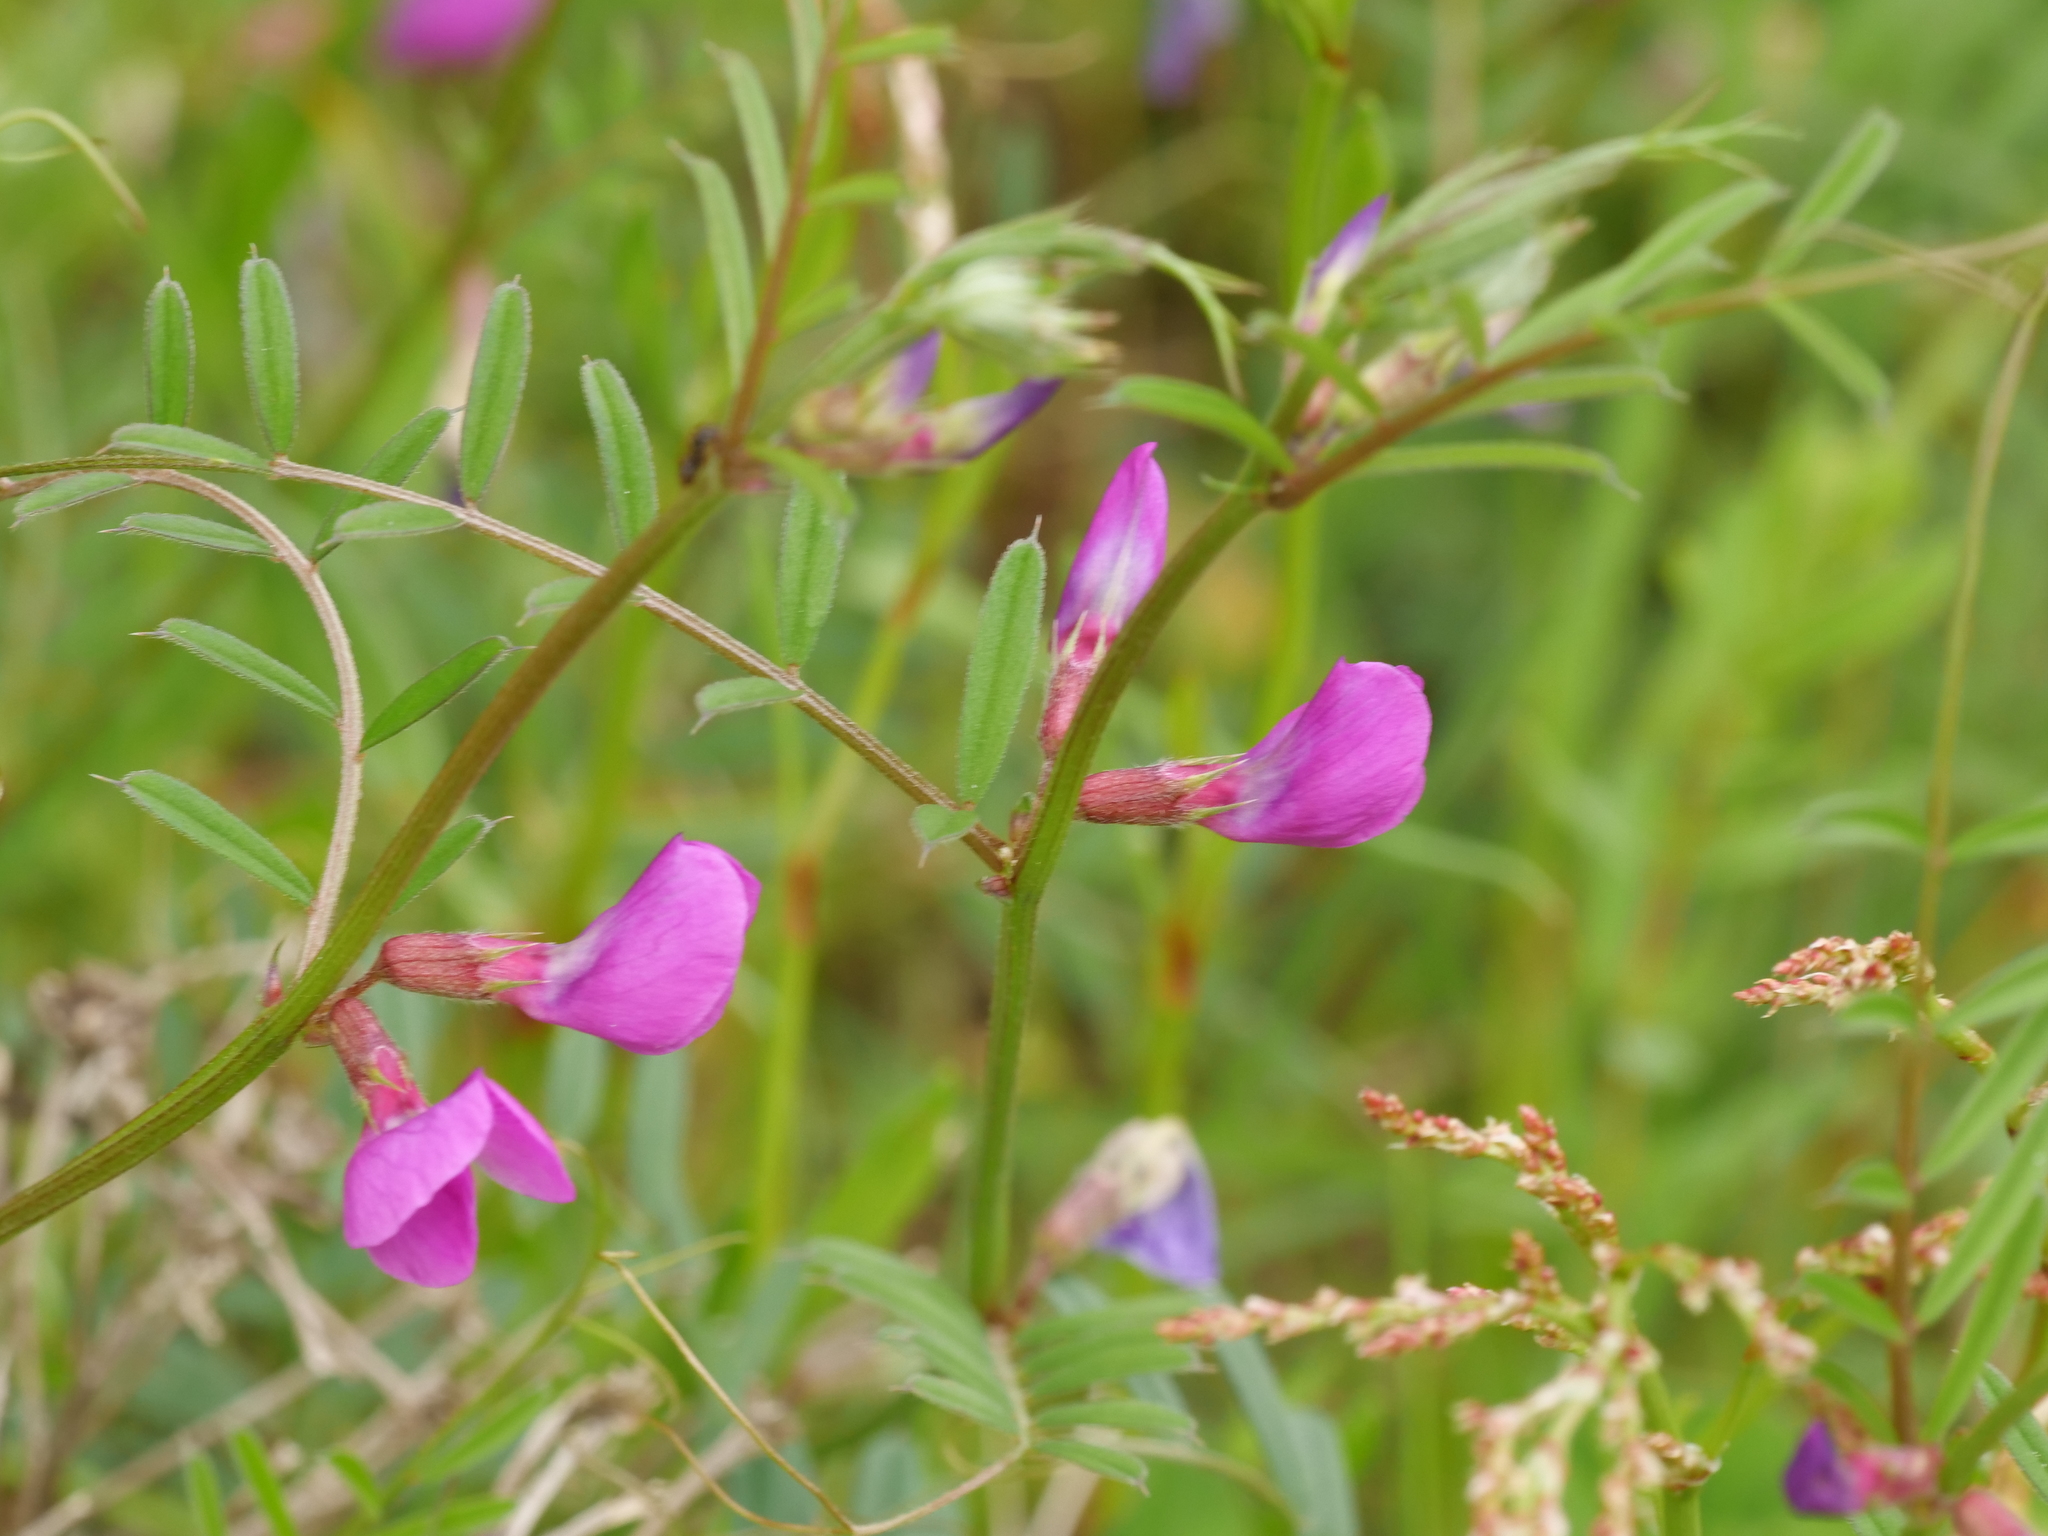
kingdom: Plantae
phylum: Tracheophyta
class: Magnoliopsida
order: Fabales
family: Fabaceae
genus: Vicia
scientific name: Vicia sativa
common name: Garden vetch
